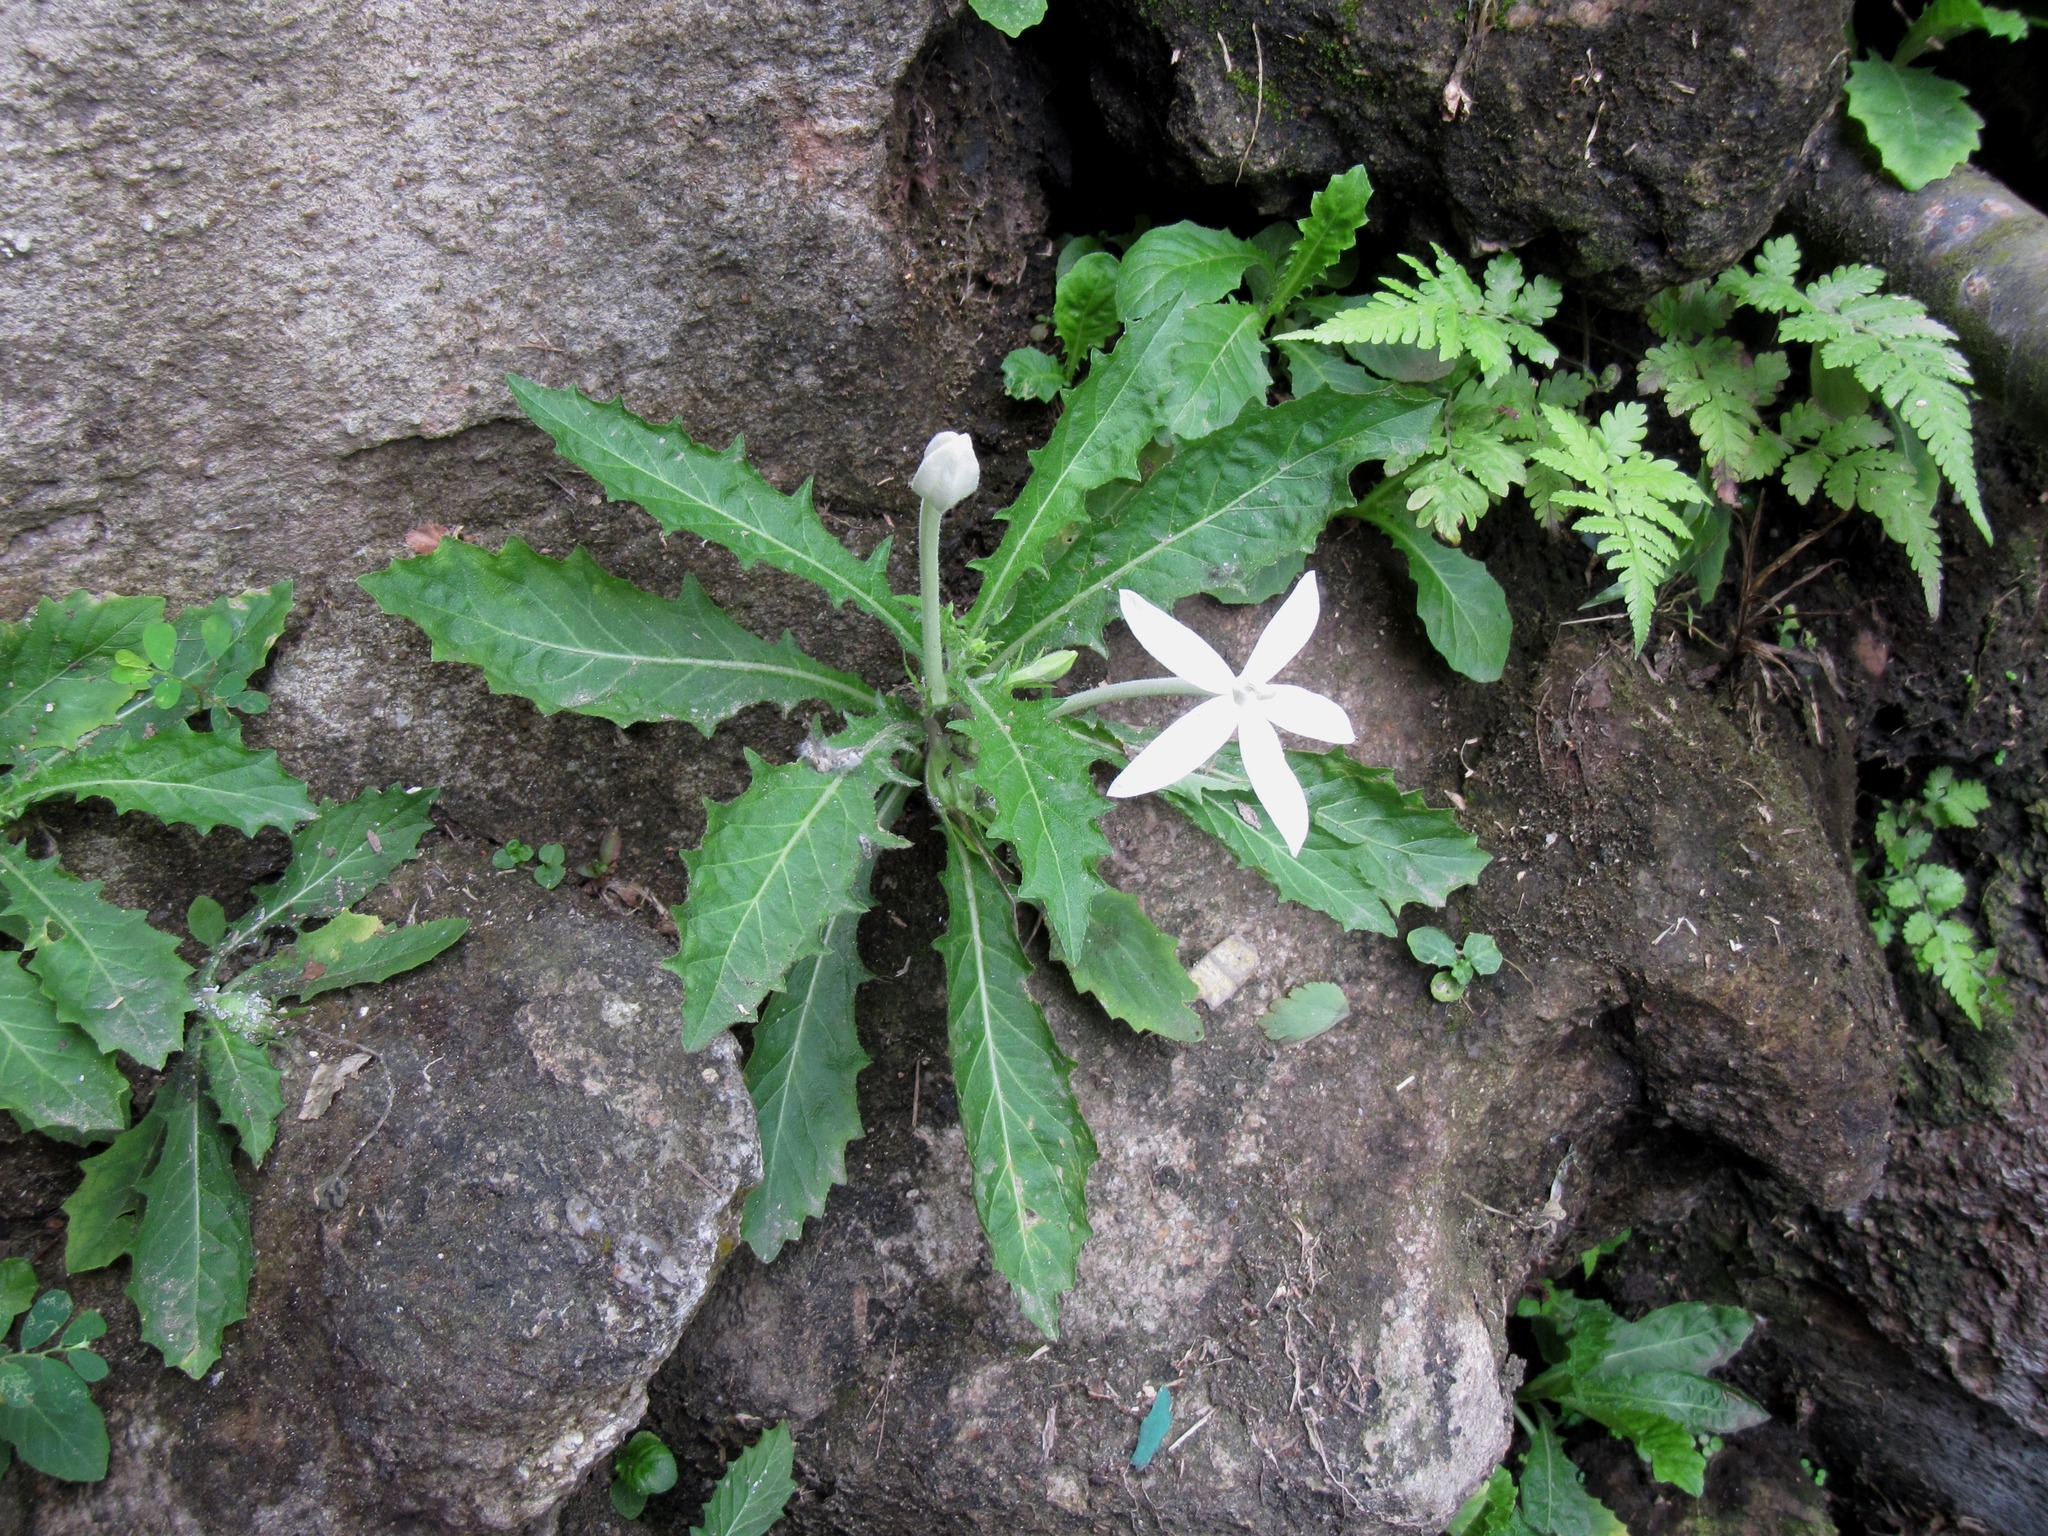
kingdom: Plantae
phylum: Tracheophyta
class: Magnoliopsida
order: Asterales
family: Campanulaceae
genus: Hippobroma
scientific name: Hippobroma longiflora
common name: Madamfate
